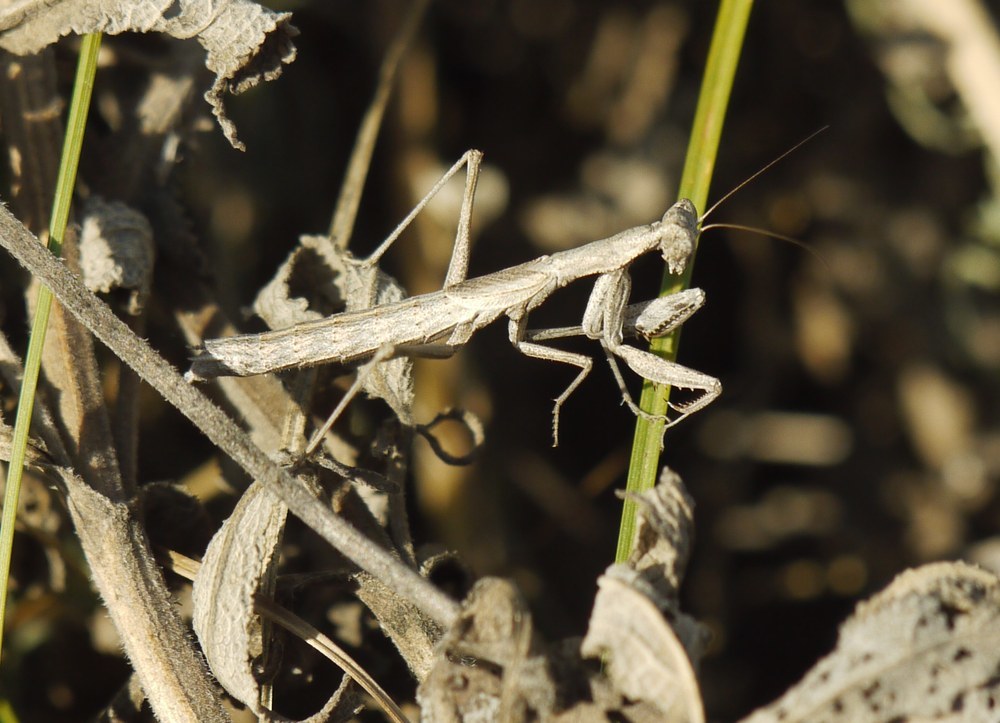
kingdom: Animalia
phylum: Arthropoda
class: Insecta
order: Mantodea
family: Amelidae
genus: Ameles
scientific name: Ameles heldreichi
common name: Heldreich's dwarf mantis
